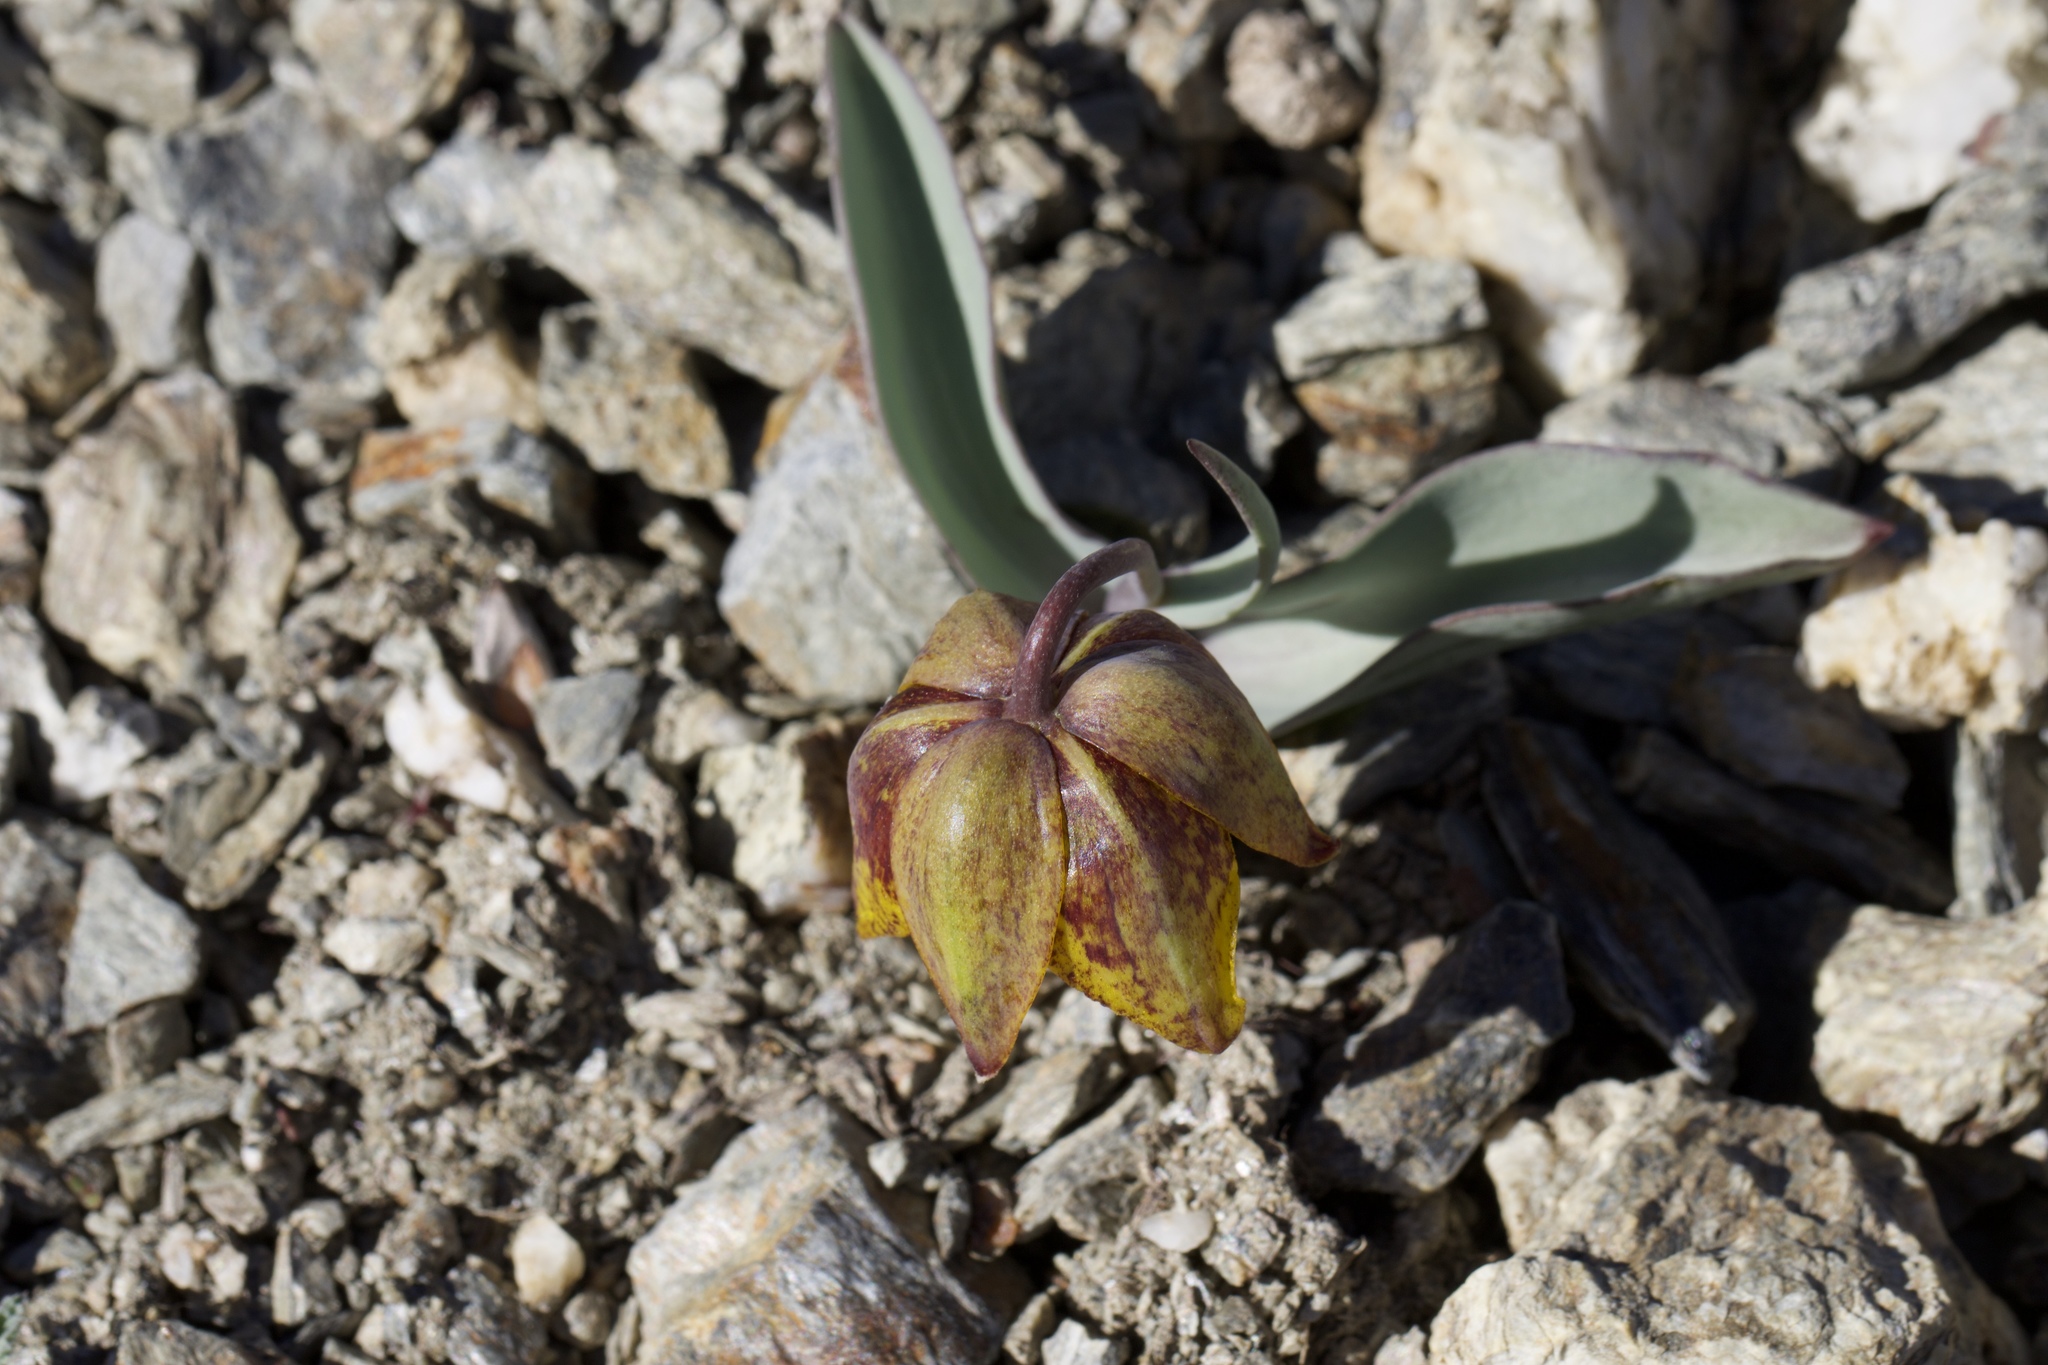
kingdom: Plantae
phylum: Tracheophyta
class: Liliopsida
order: Liliales
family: Liliaceae
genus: Fritillaria
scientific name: Fritillaria glauca
